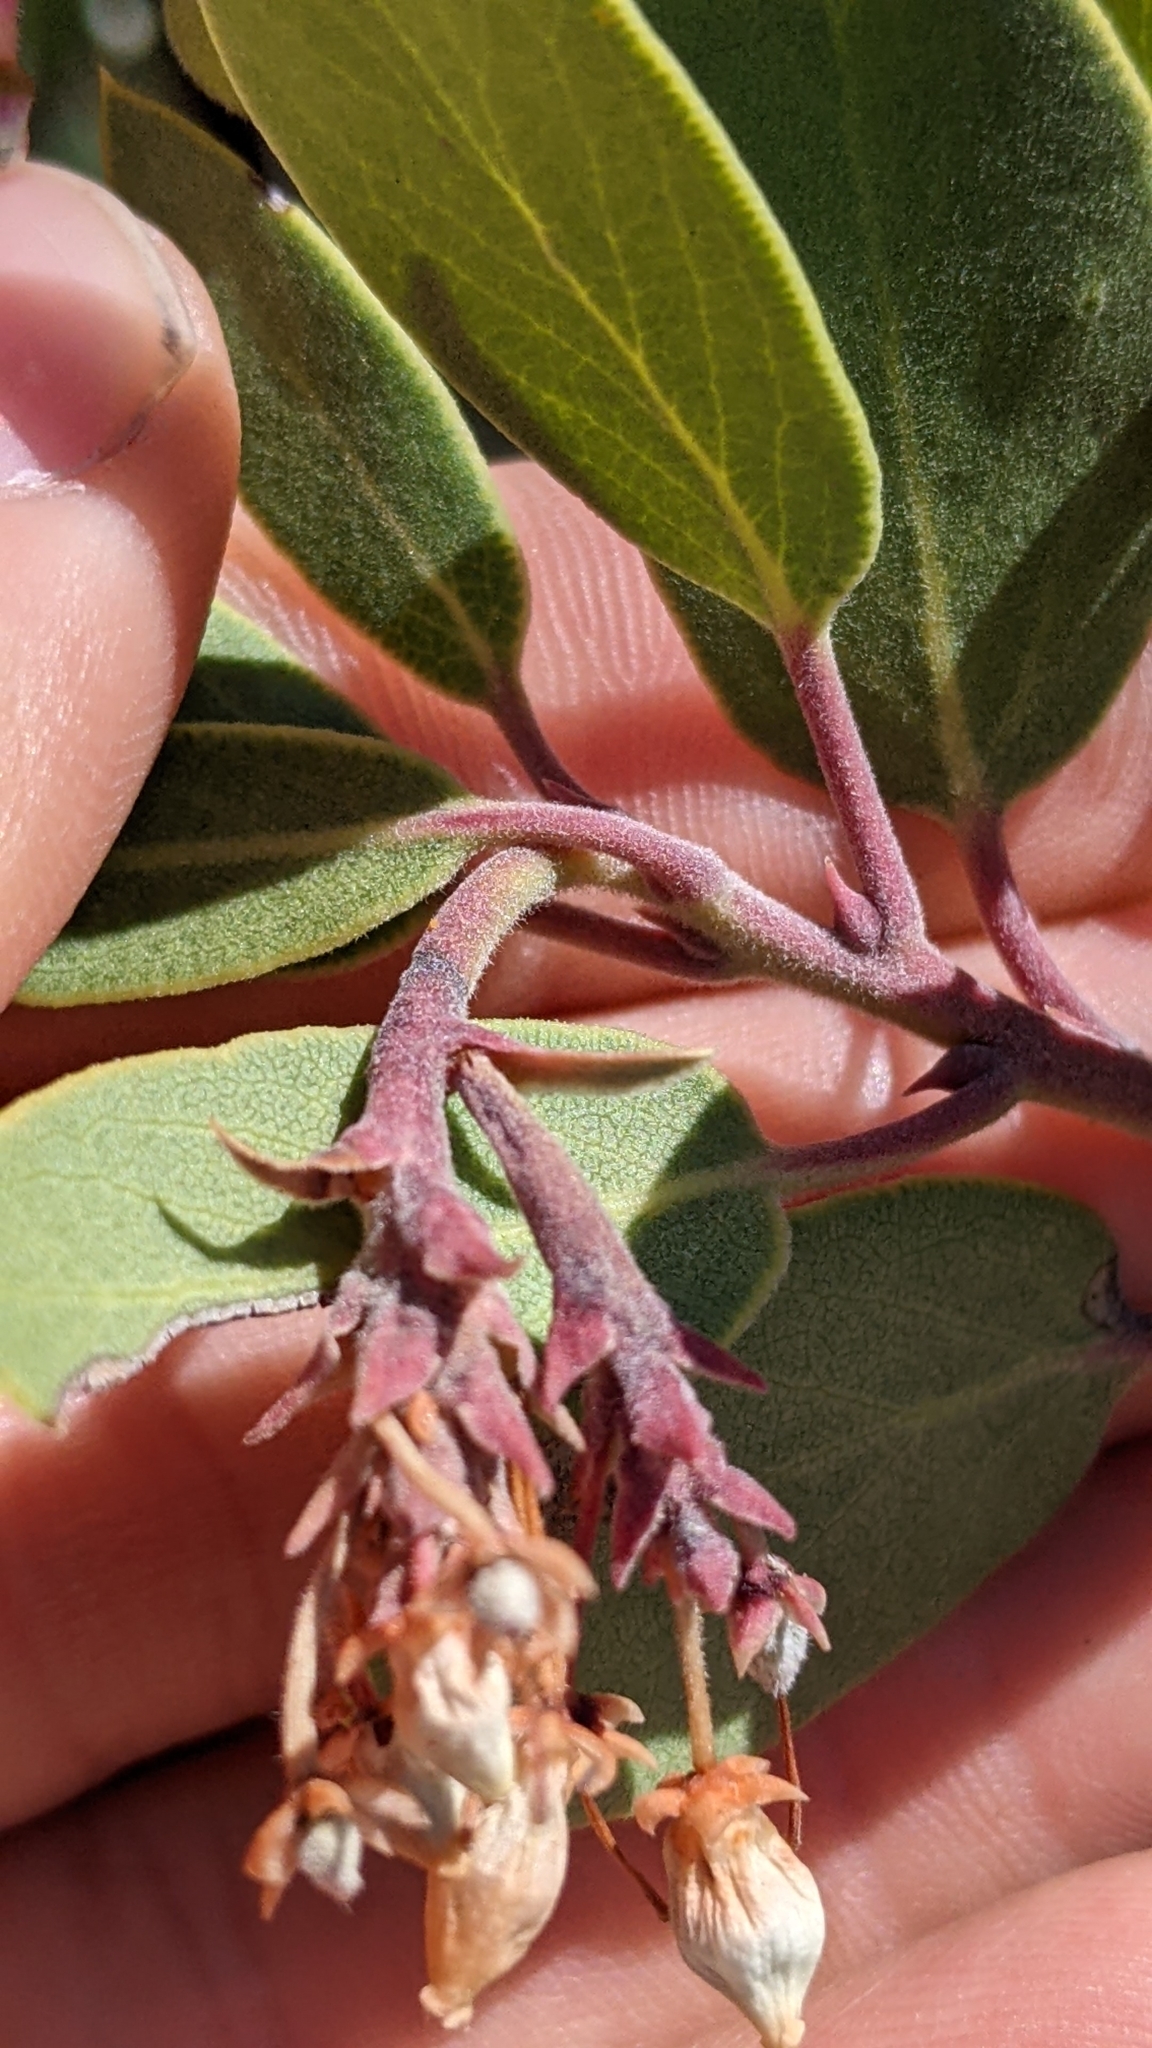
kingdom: Plantae
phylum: Tracheophyta
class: Magnoliopsida
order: Ericales
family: Ericaceae
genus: Arctostaphylos
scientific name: Arctostaphylos parryana
